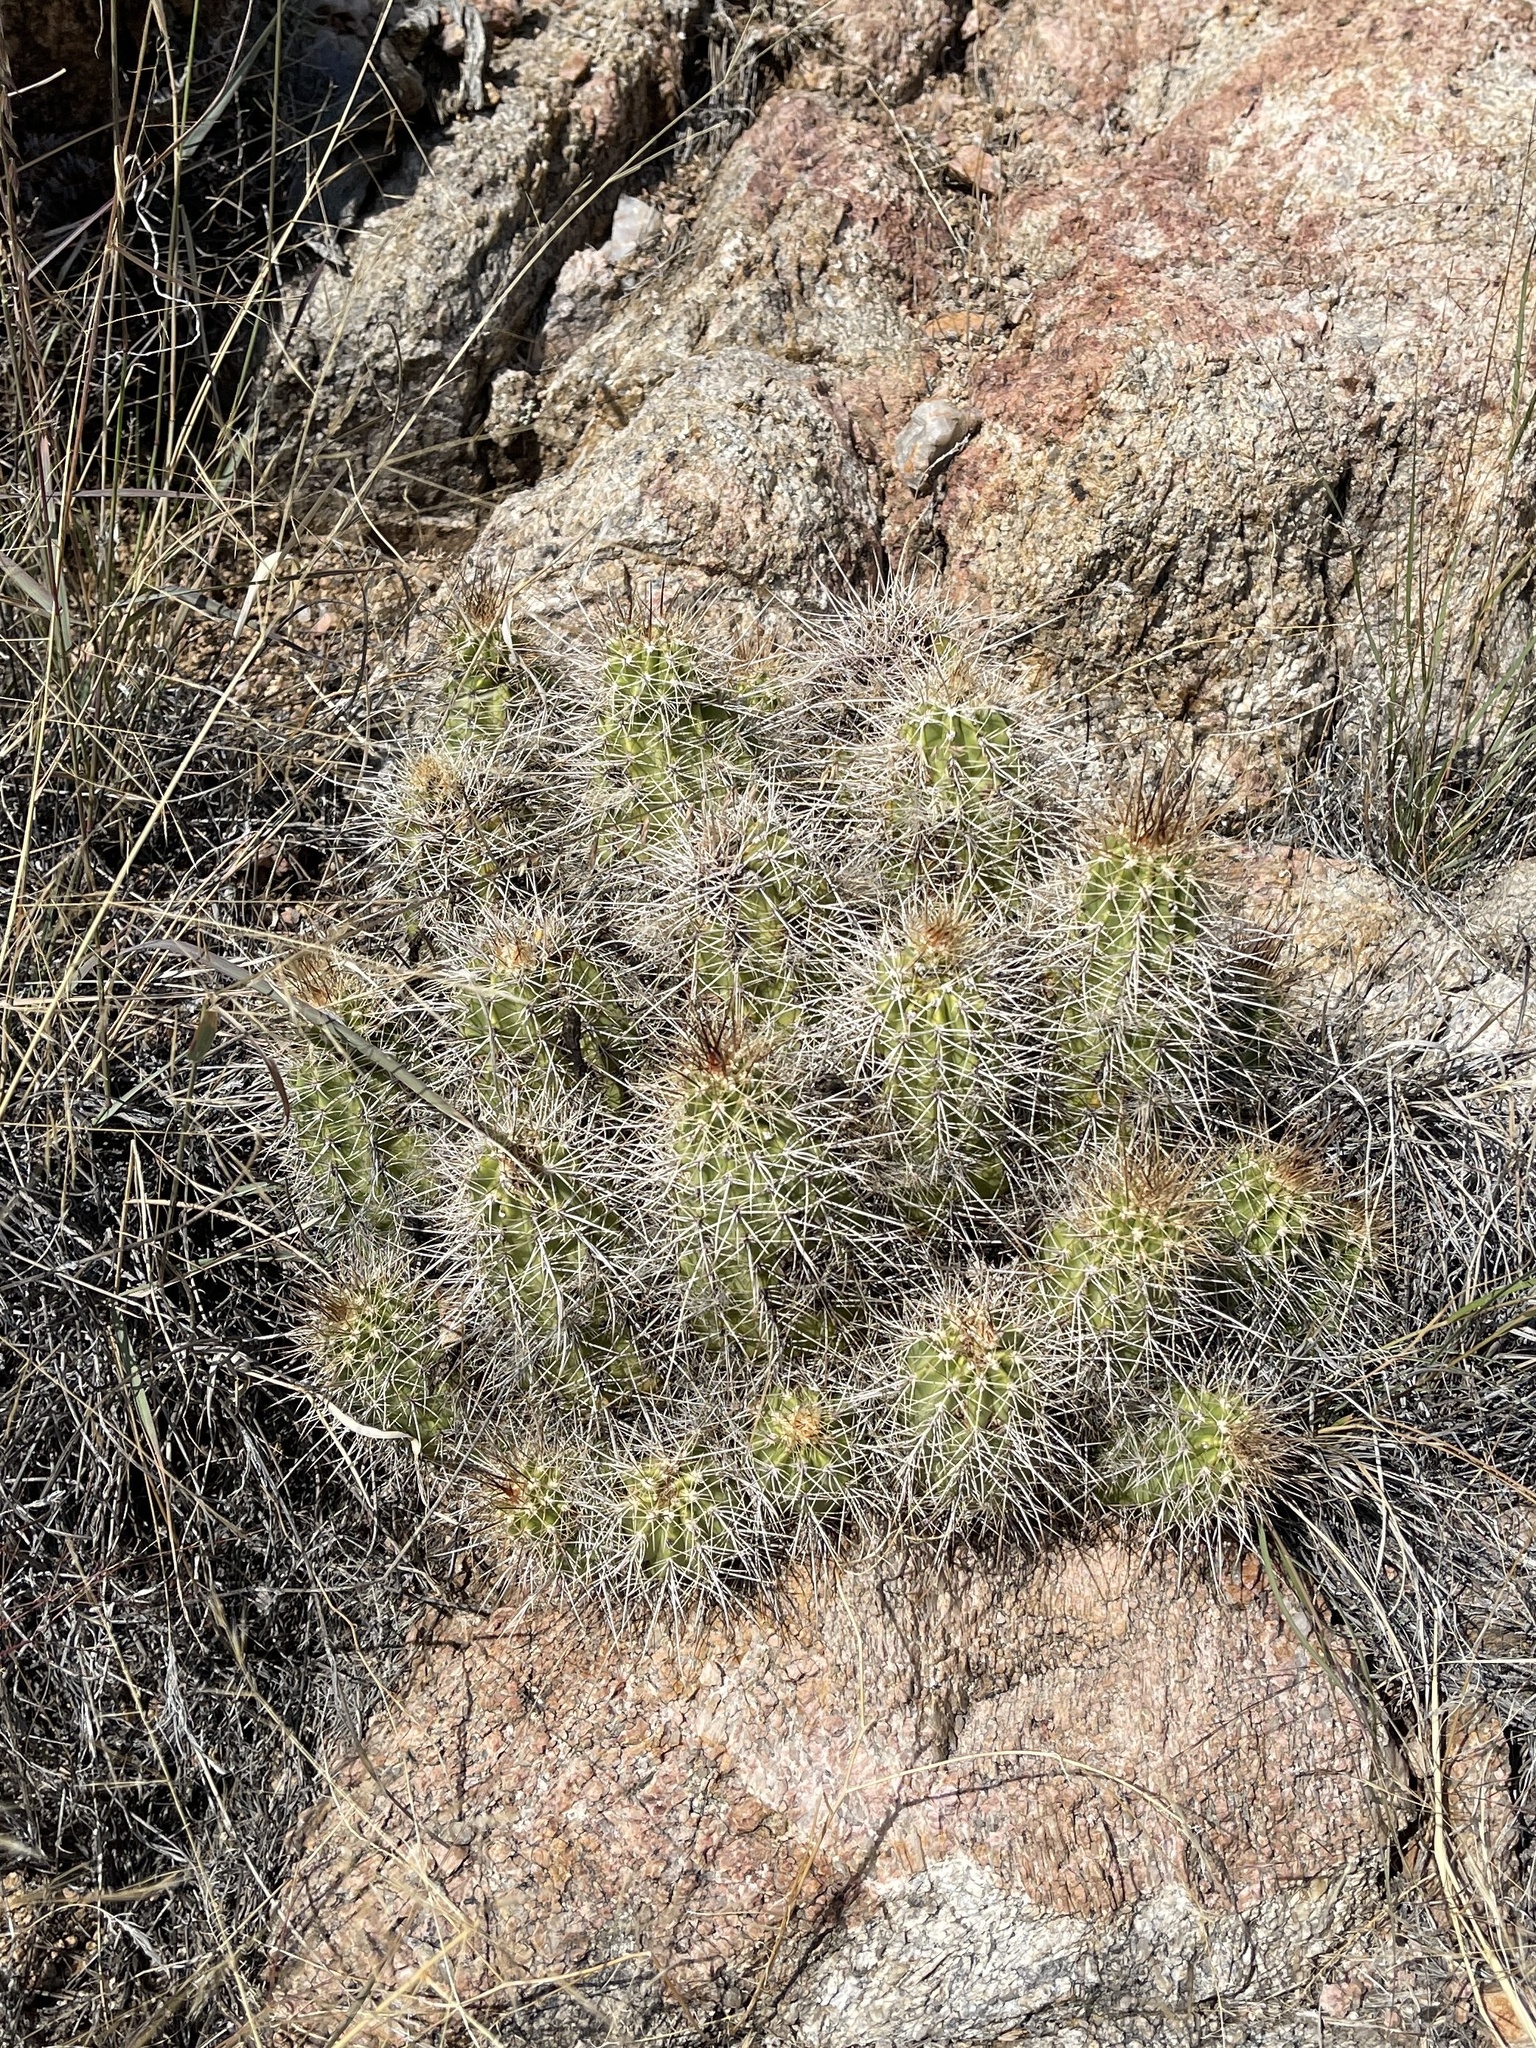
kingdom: Plantae
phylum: Tracheophyta
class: Magnoliopsida
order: Caryophyllales
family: Cactaceae
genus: Echinocereus
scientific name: Echinocereus bakeri
